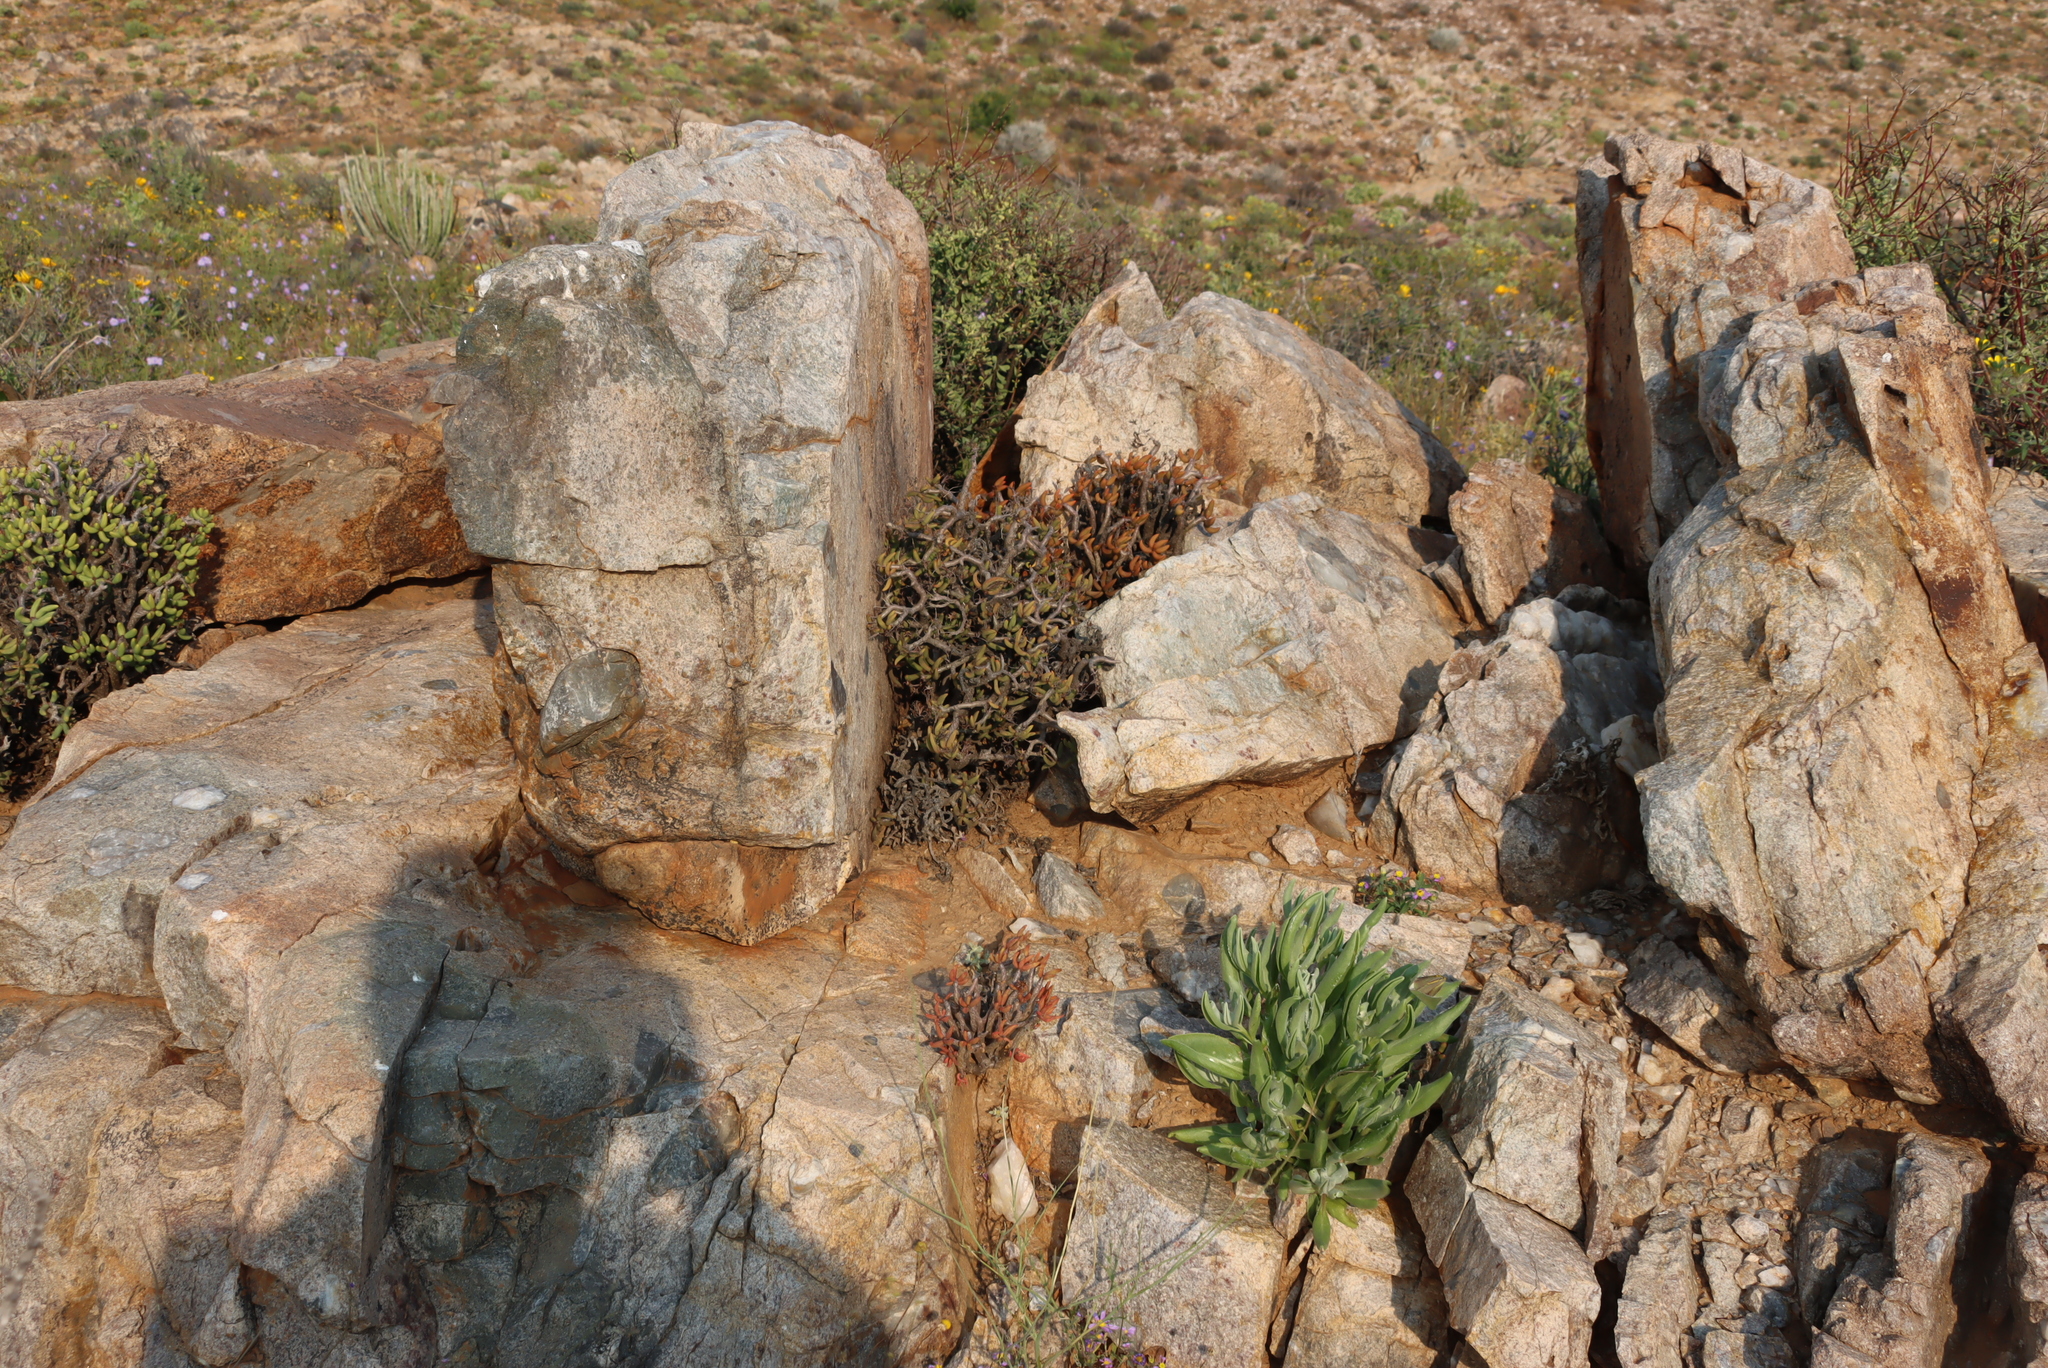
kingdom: Plantae
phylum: Tracheophyta
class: Magnoliopsida
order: Saxifragales
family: Crassulaceae
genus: Tylecodon
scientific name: Tylecodon buchholzianus
